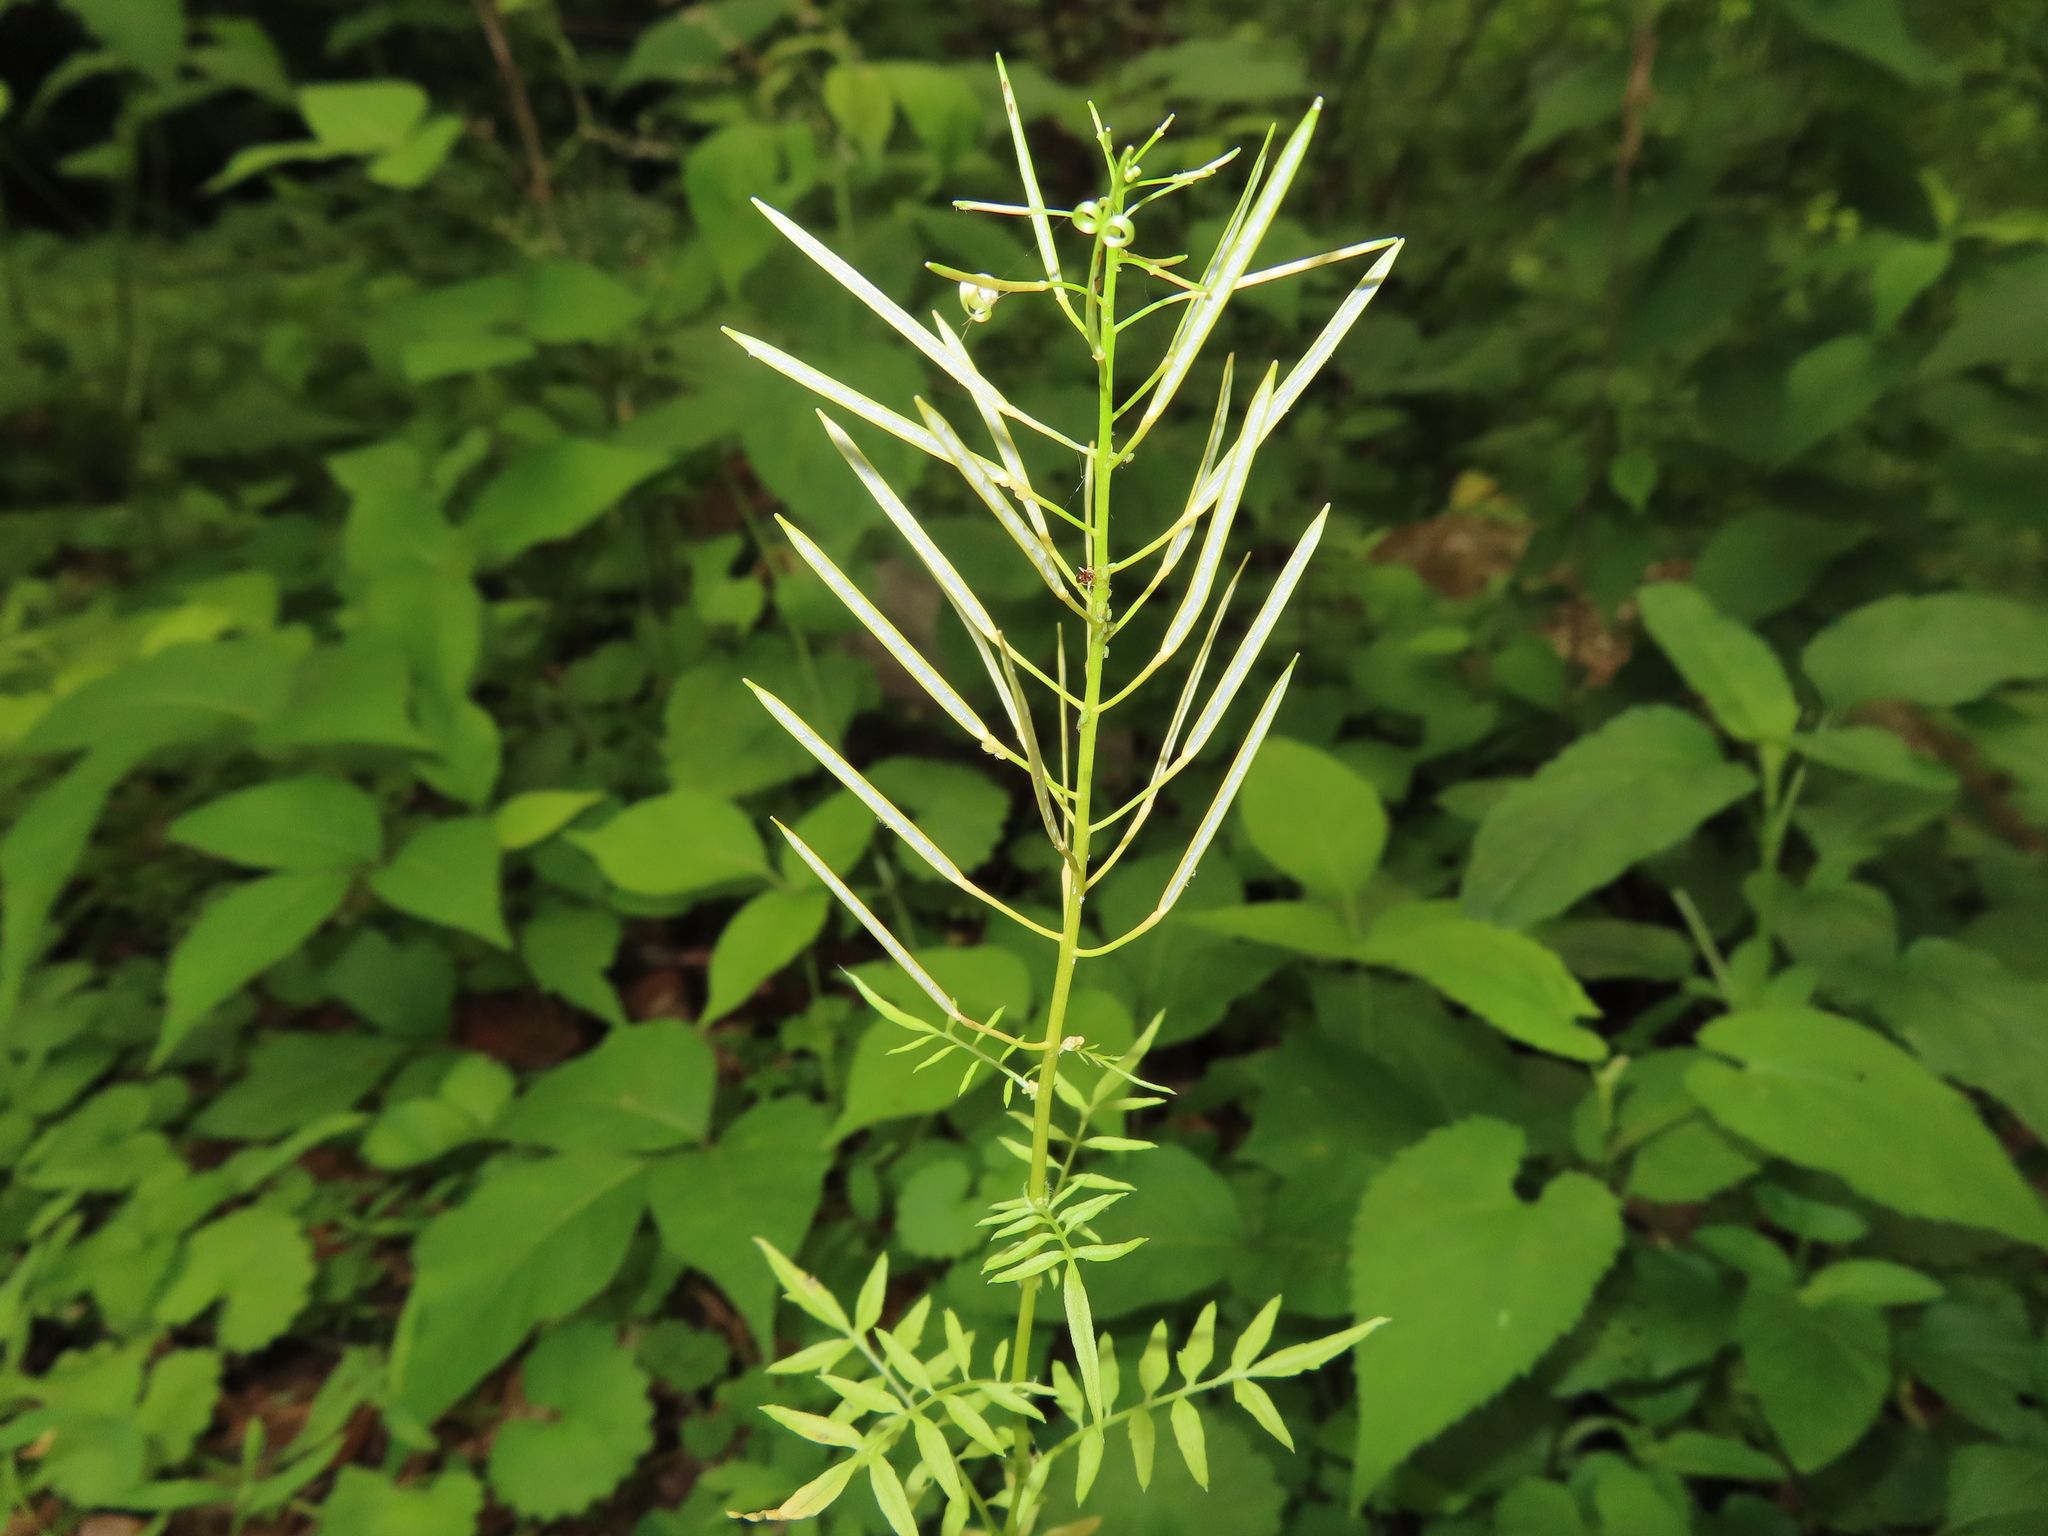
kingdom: Plantae
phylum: Tracheophyta
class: Magnoliopsida
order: Brassicales
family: Brassicaceae
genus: Cardamine
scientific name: Cardamine impatiens
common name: Narrow-leaved bitter-cress
